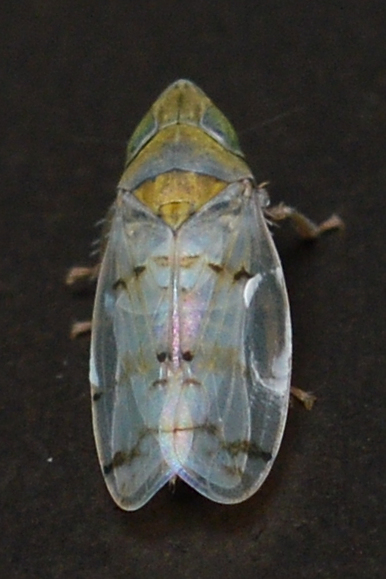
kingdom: Animalia
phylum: Arthropoda
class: Insecta
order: Hemiptera
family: Cicadellidae
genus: Japananus
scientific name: Japananus hyalinus
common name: The japanese maple leafhopper
